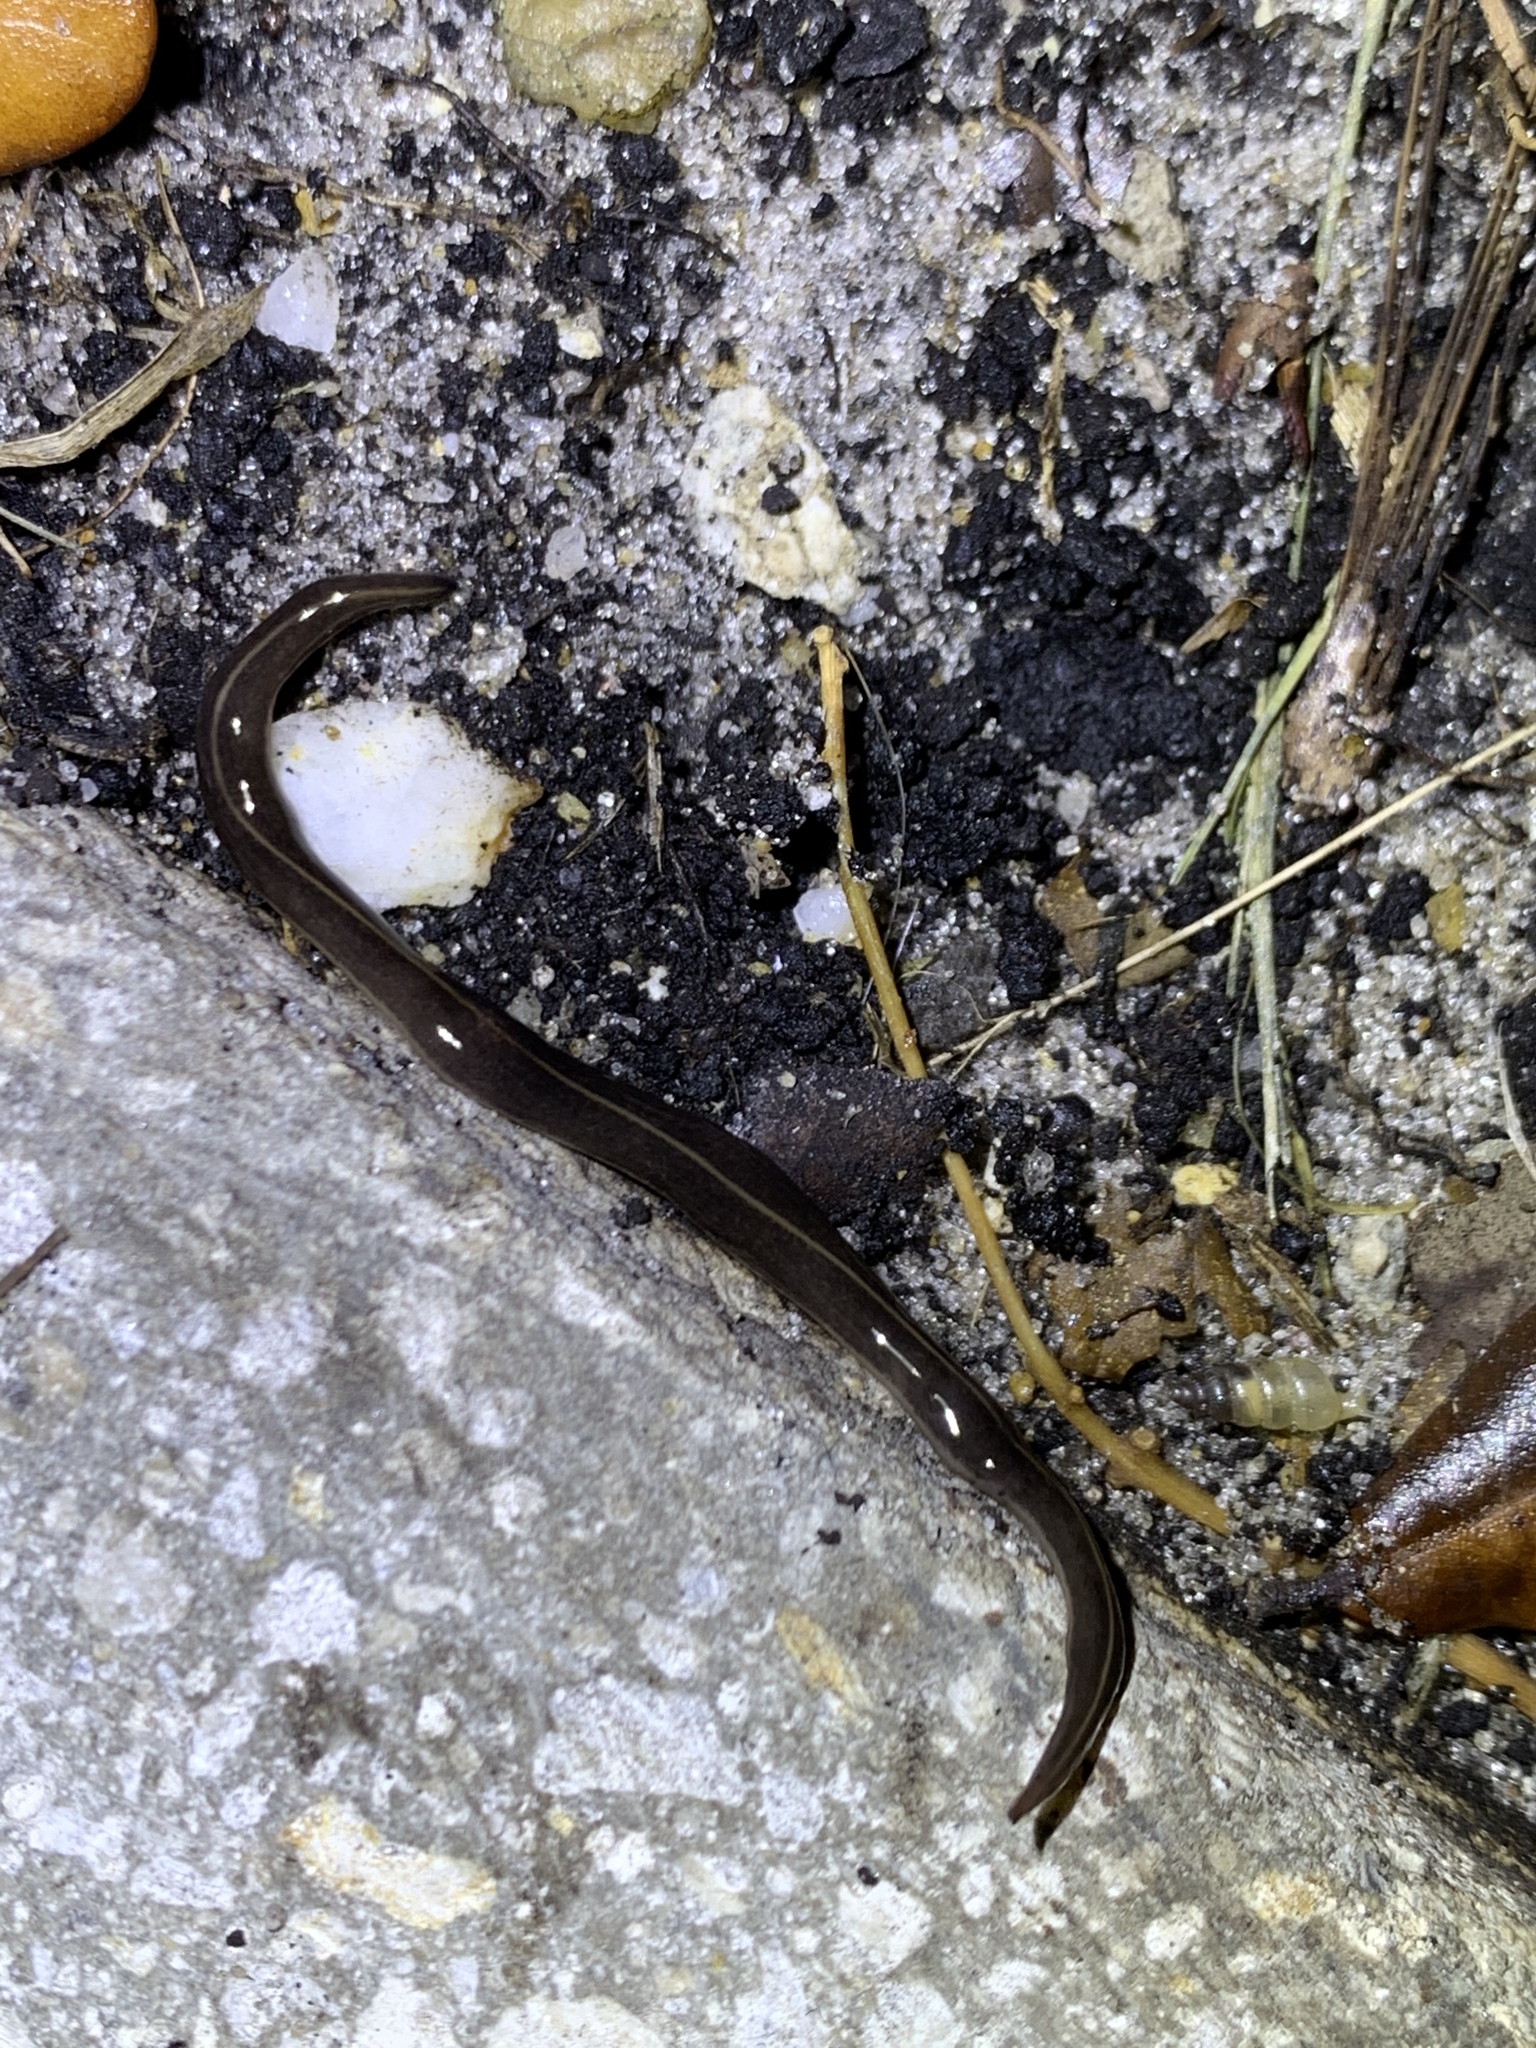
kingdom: Animalia
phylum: Platyhelminthes
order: Tricladida
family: Geoplanidae
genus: Platydemus
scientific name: Platydemus manokwari
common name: New guinea flatworm
